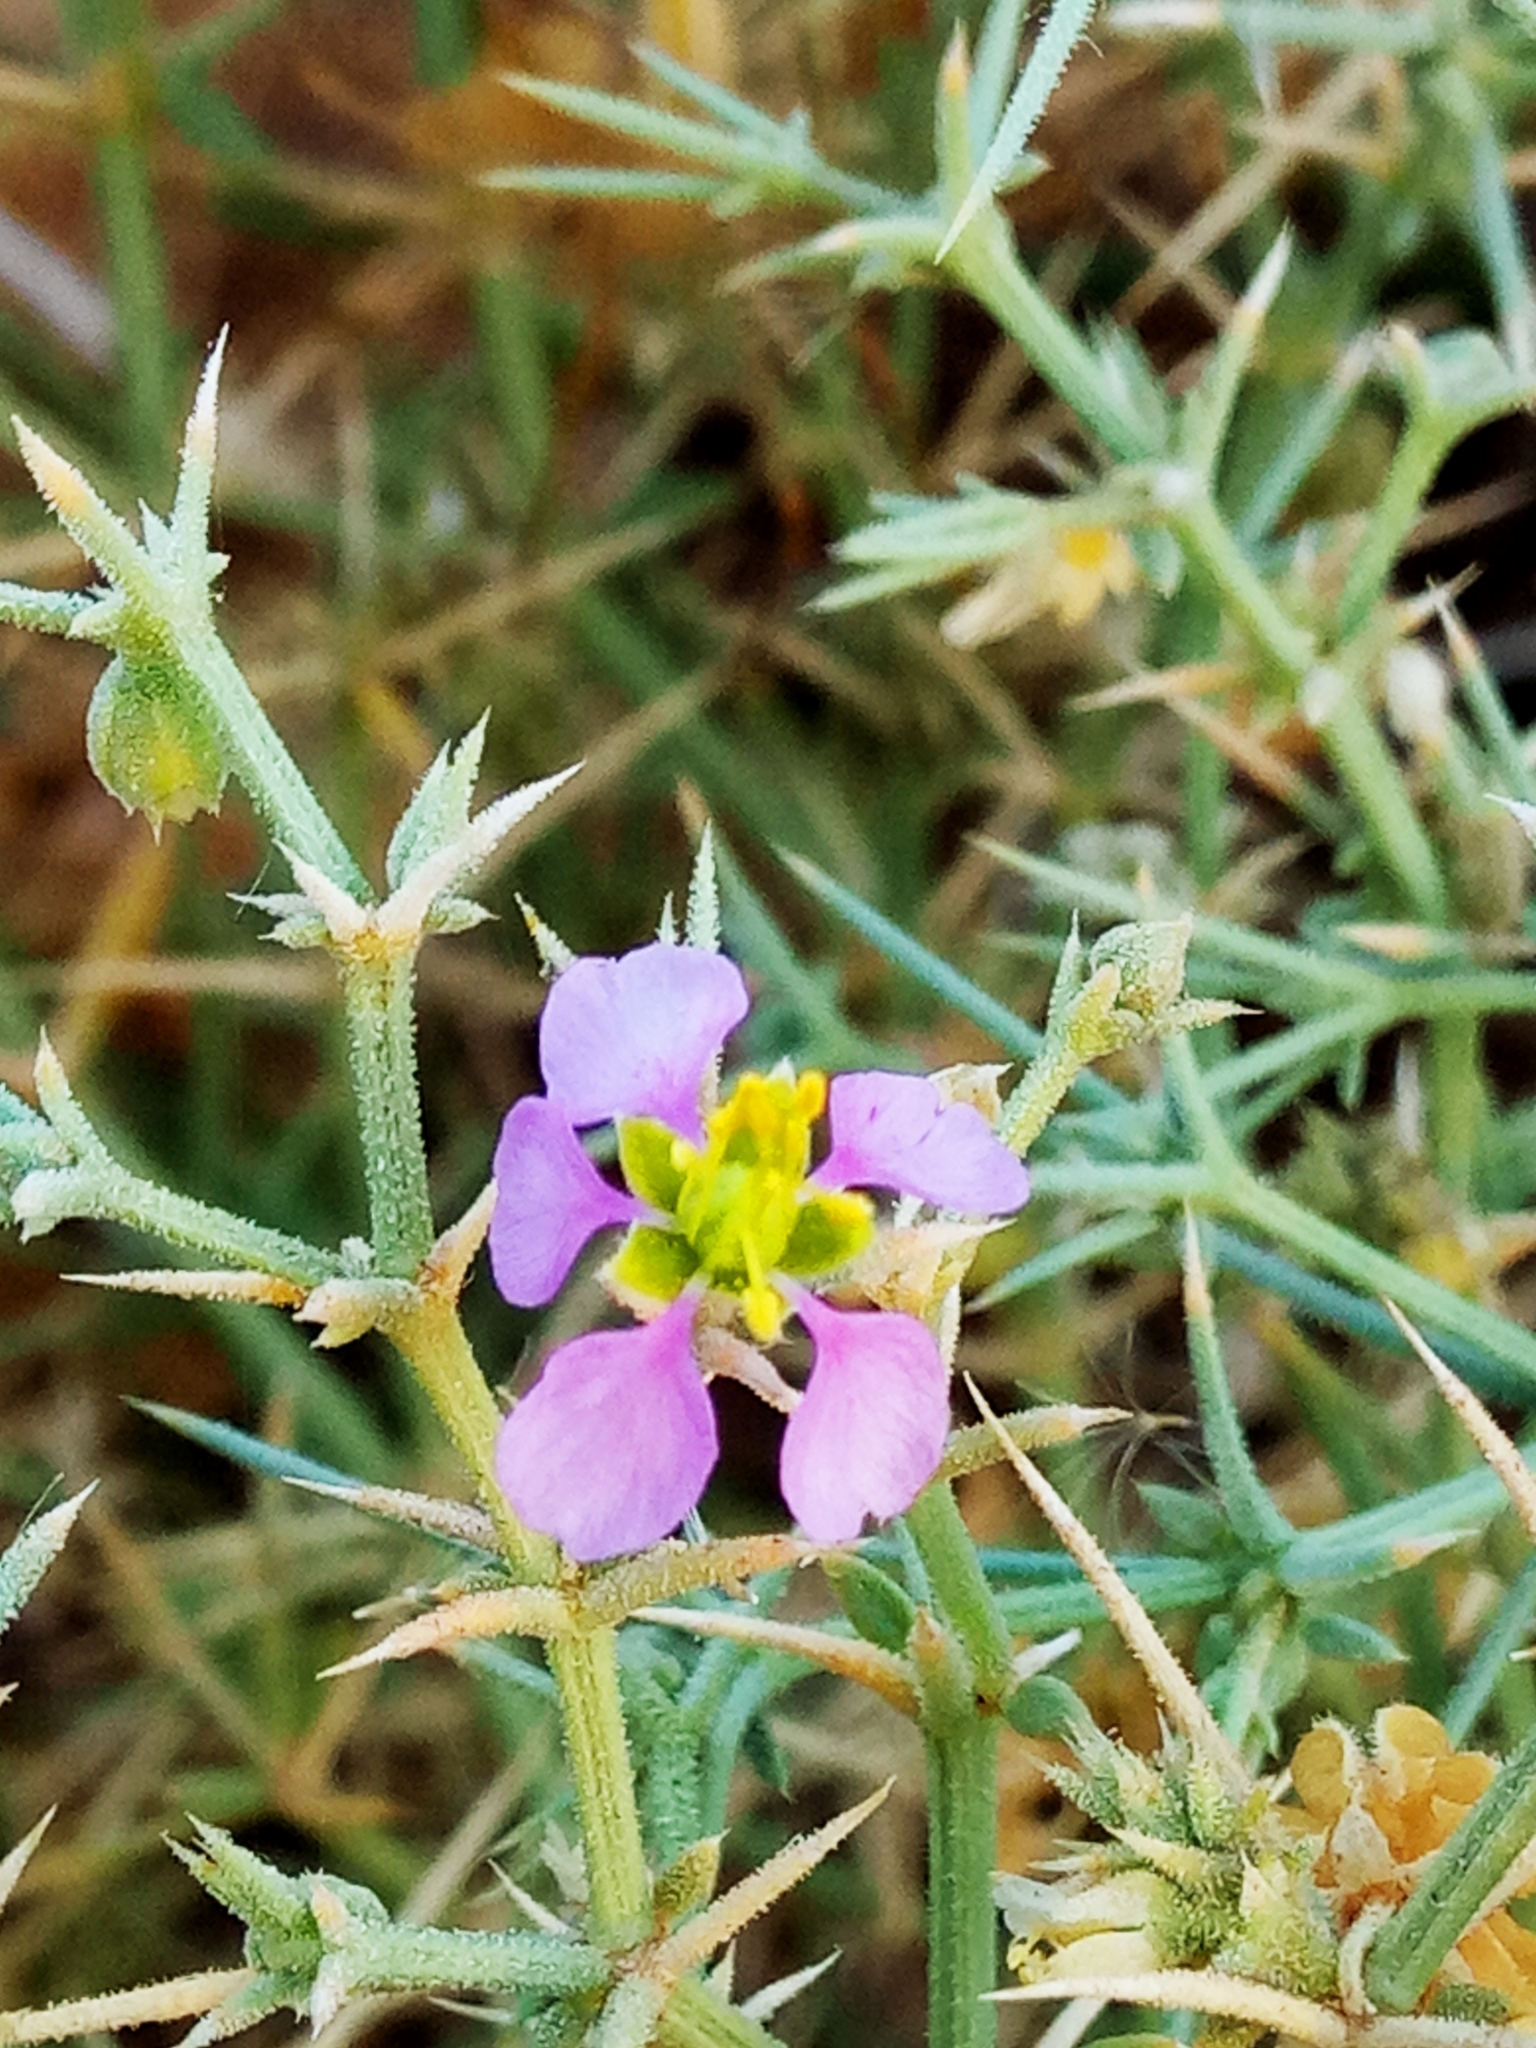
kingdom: Plantae
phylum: Tracheophyta
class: Magnoliopsida
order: Zygophyllales
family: Zygophyllaceae
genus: Fagonia
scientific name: Fagonia olivieri
